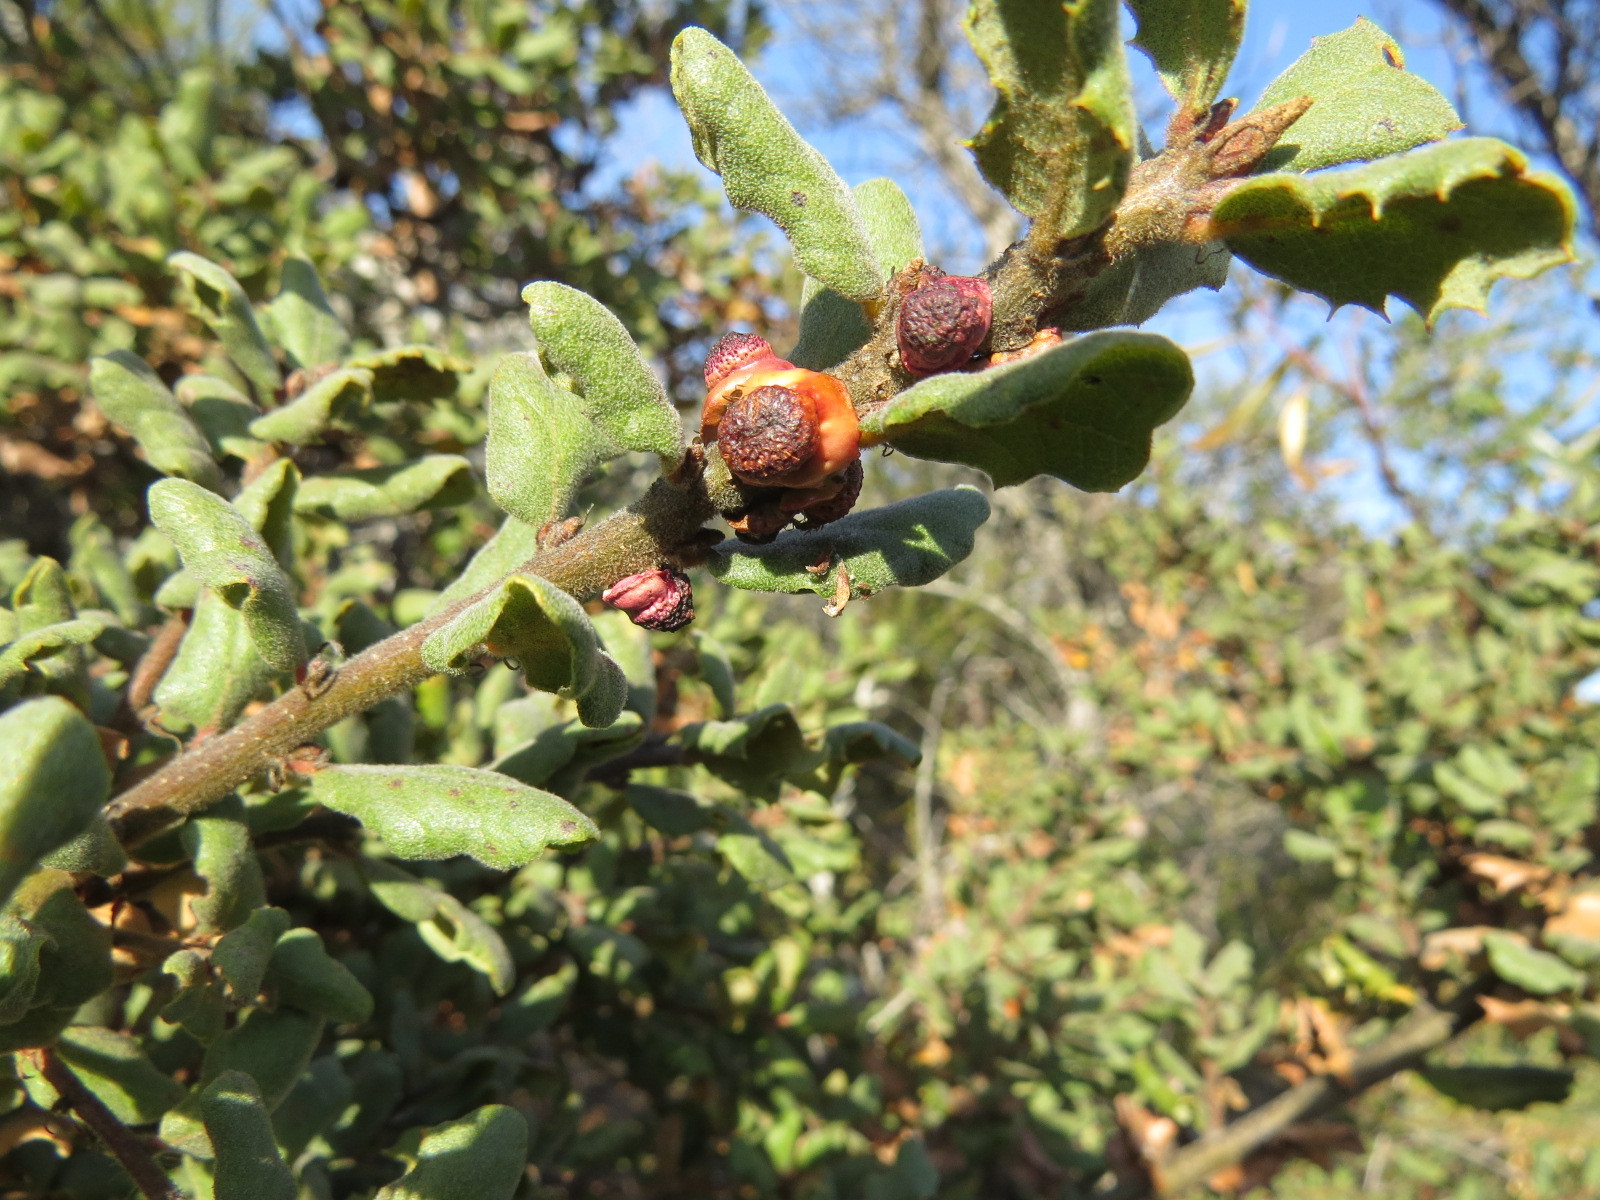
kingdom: Animalia
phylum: Arthropoda
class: Insecta
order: Hymenoptera
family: Cynipidae
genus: Disholcaspis
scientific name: Disholcaspis prehensa
